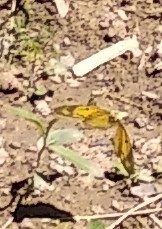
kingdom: Animalia
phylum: Arthropoda
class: Insecta
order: Lepidoptera
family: Pieridae
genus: Colias
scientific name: Colias croceus
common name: Clouded yellow
